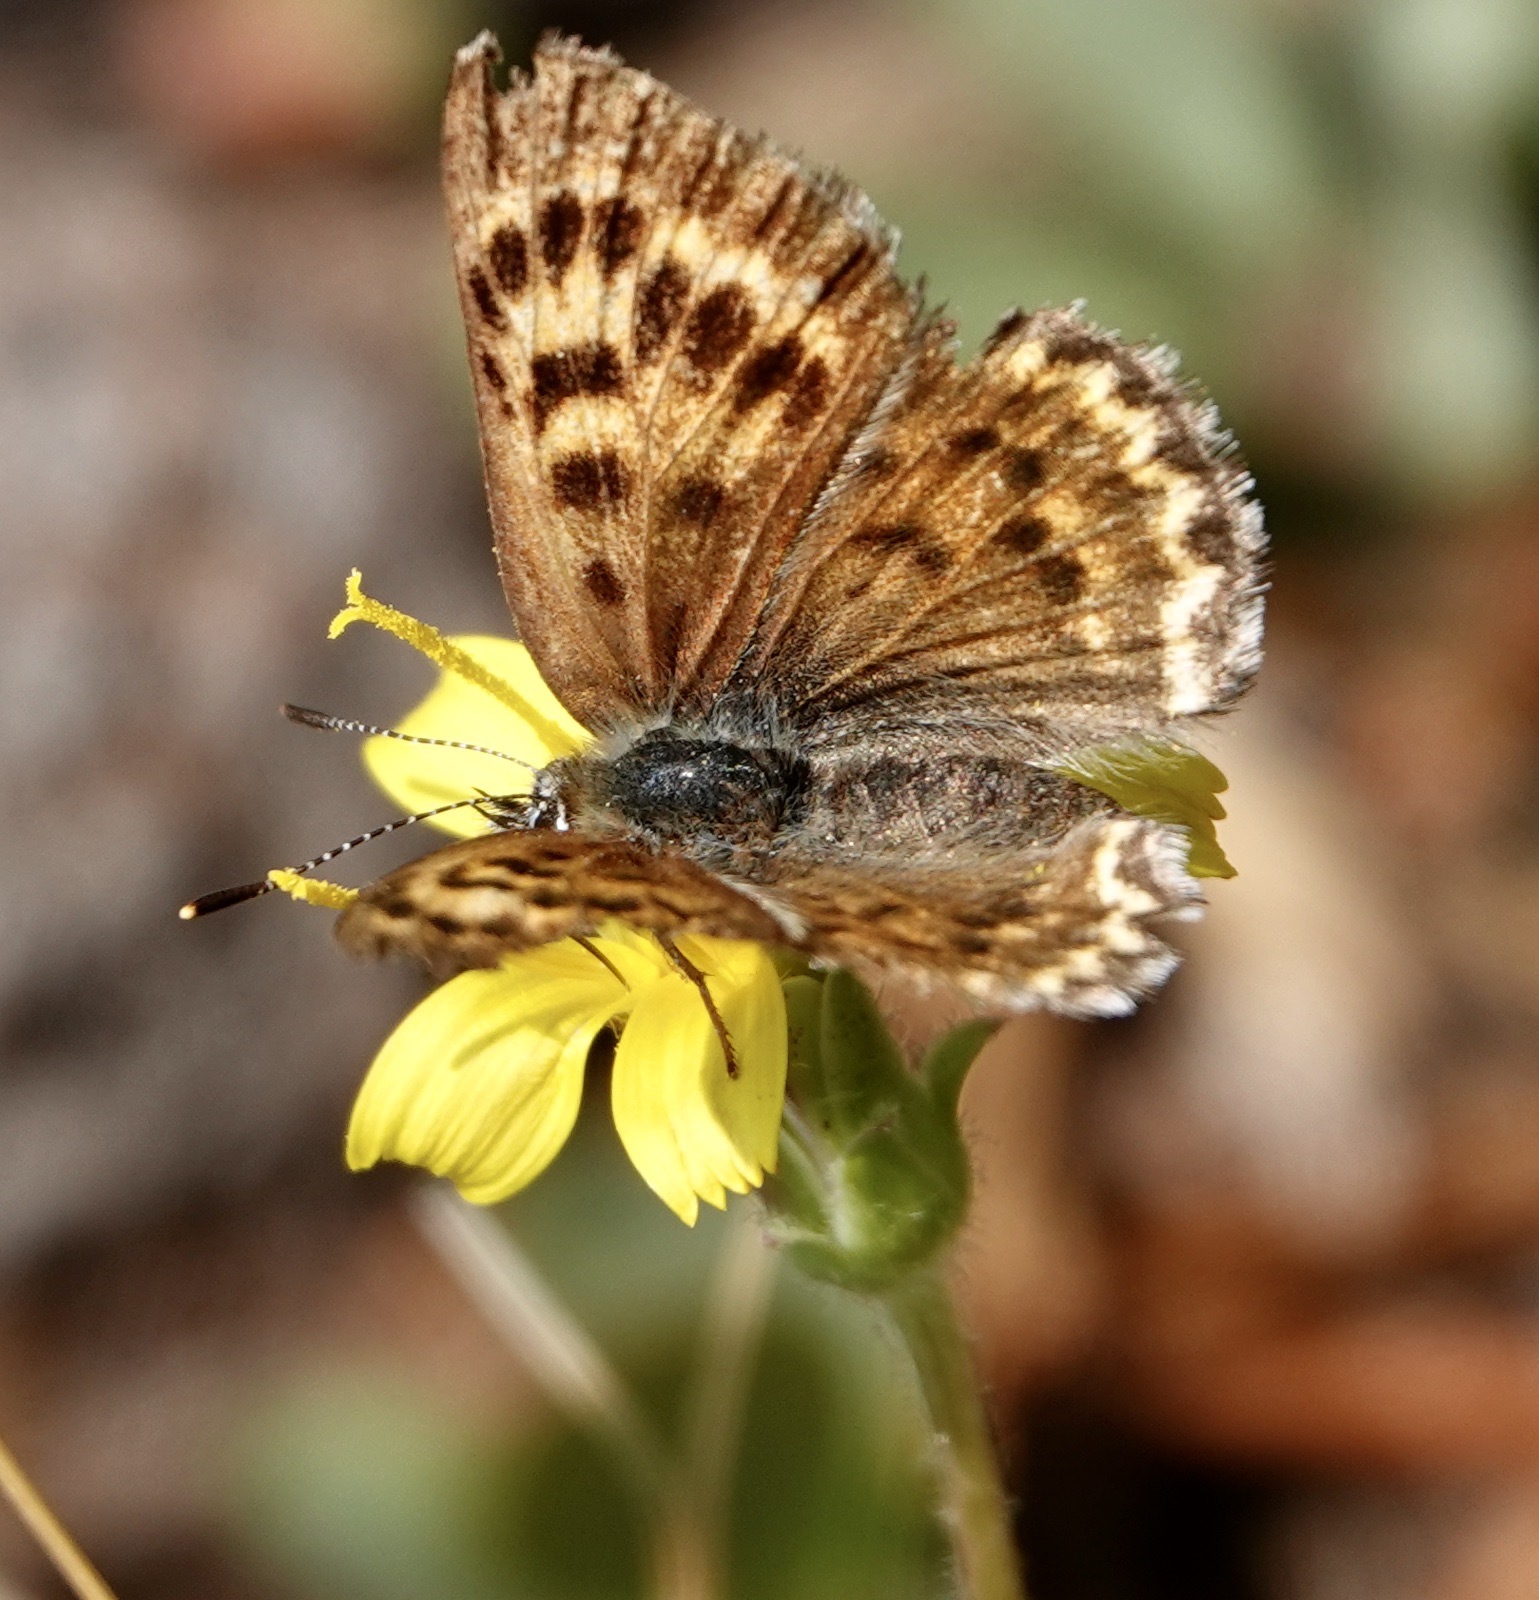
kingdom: Animalia
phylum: Arthropoda
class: Insecta
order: Lepidoptera
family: Lycaenidae
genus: Tharsalea
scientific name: Tharsalea mariposa
